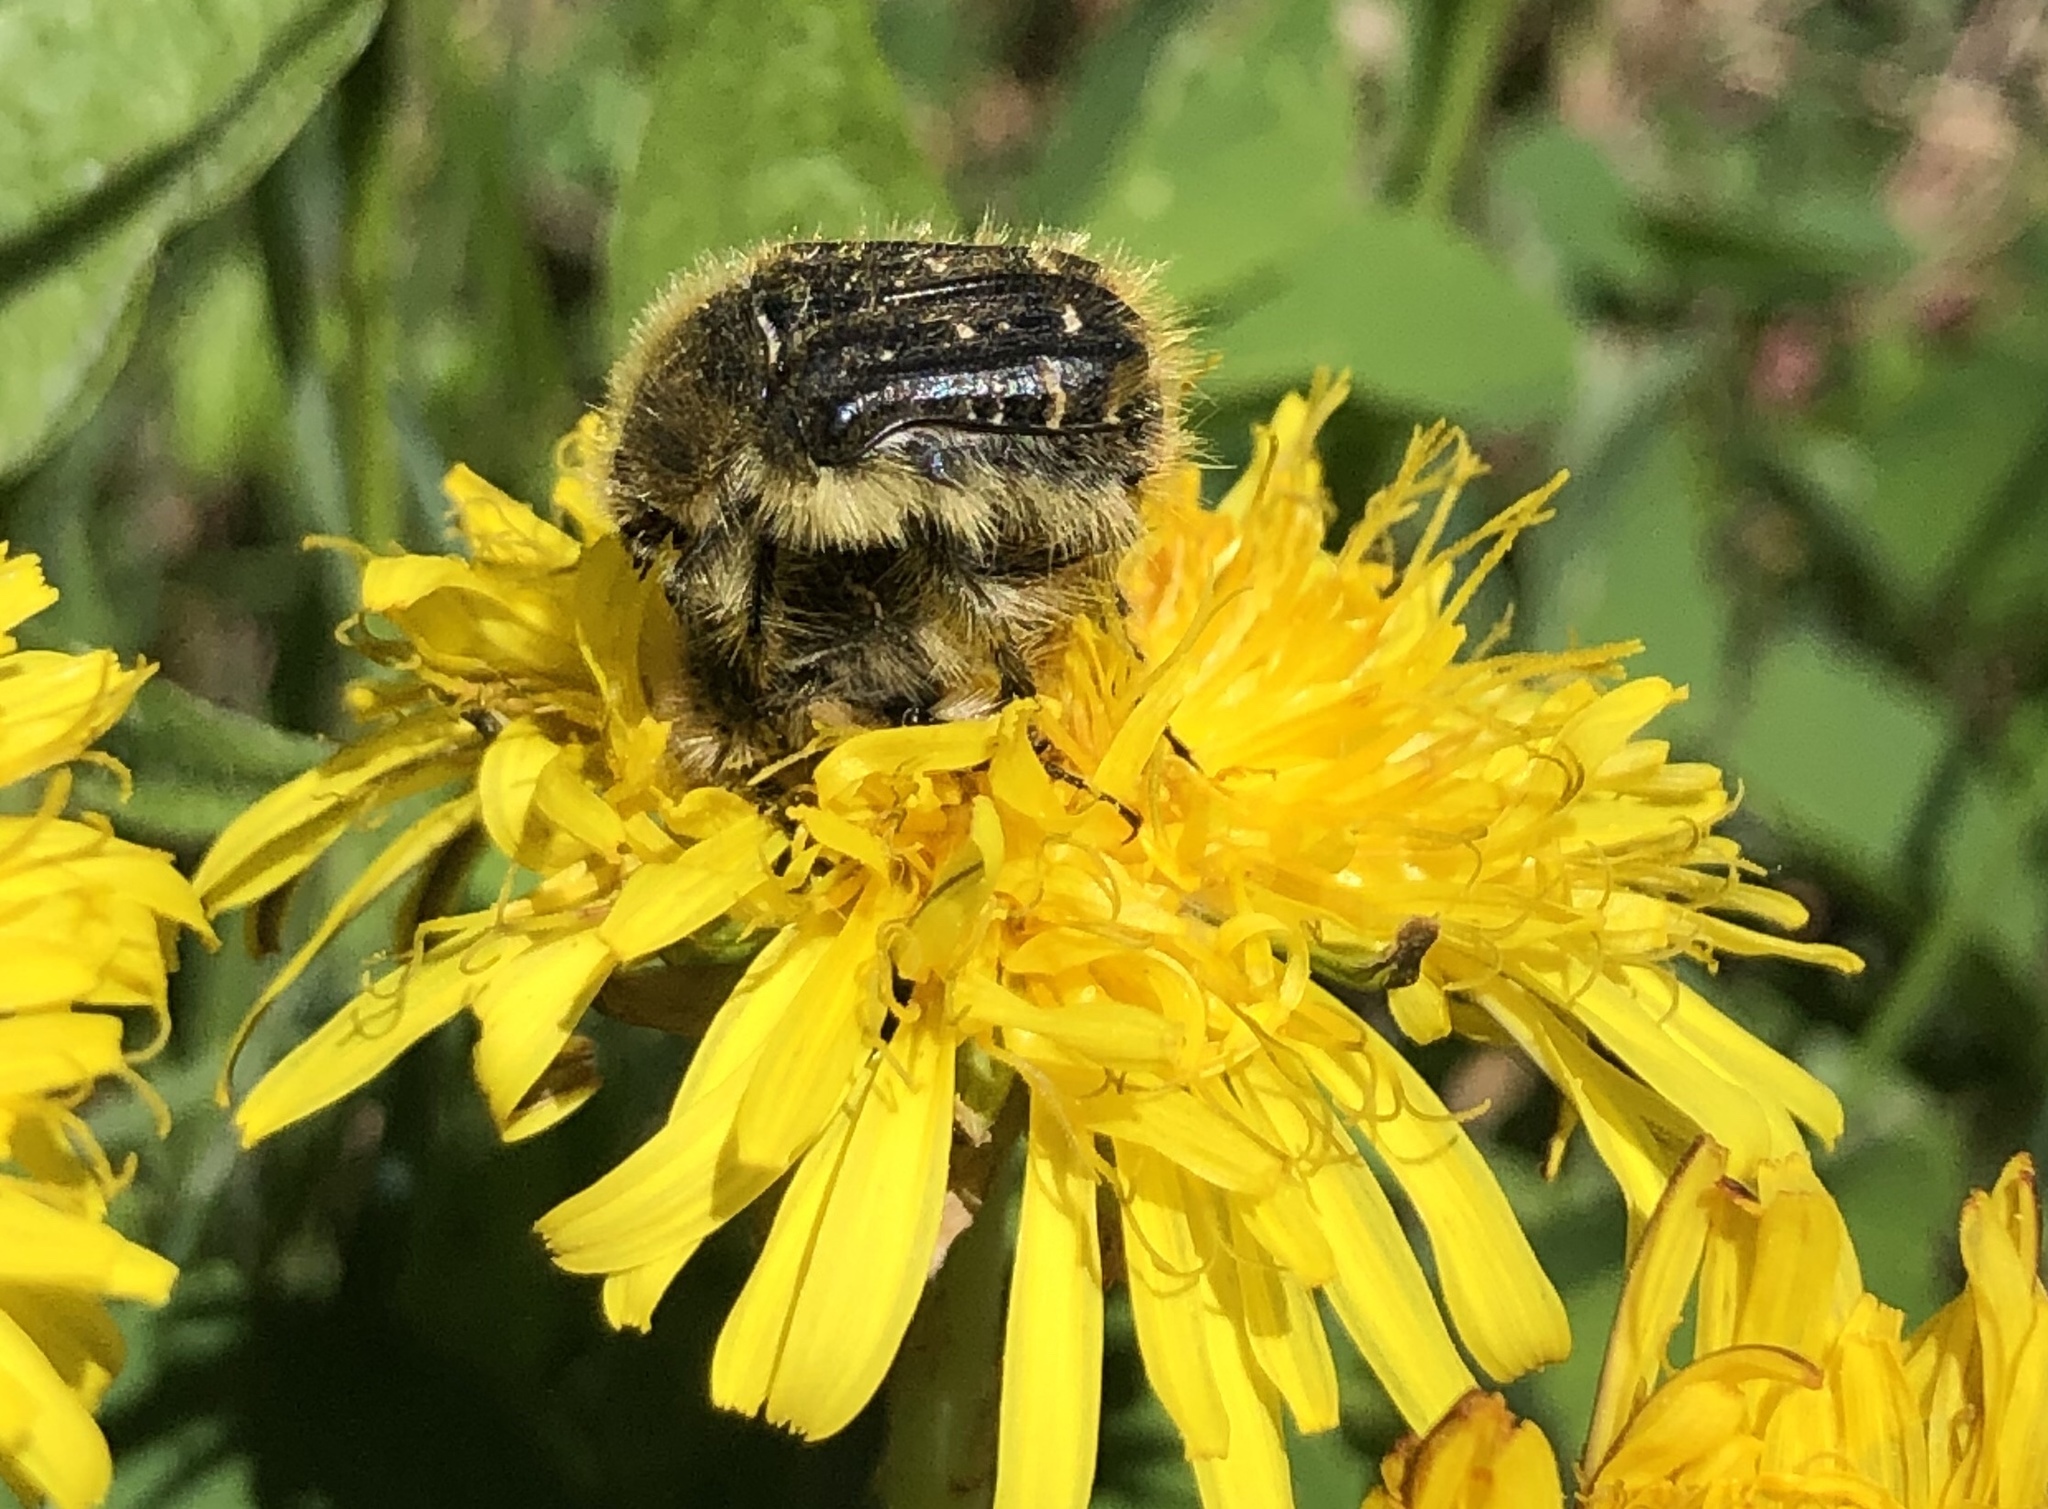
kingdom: Animalia
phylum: Arthropoda
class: Insecta
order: Coleoptera
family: Scarabaeidae
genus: Tropinota
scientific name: Tropinota squalida
